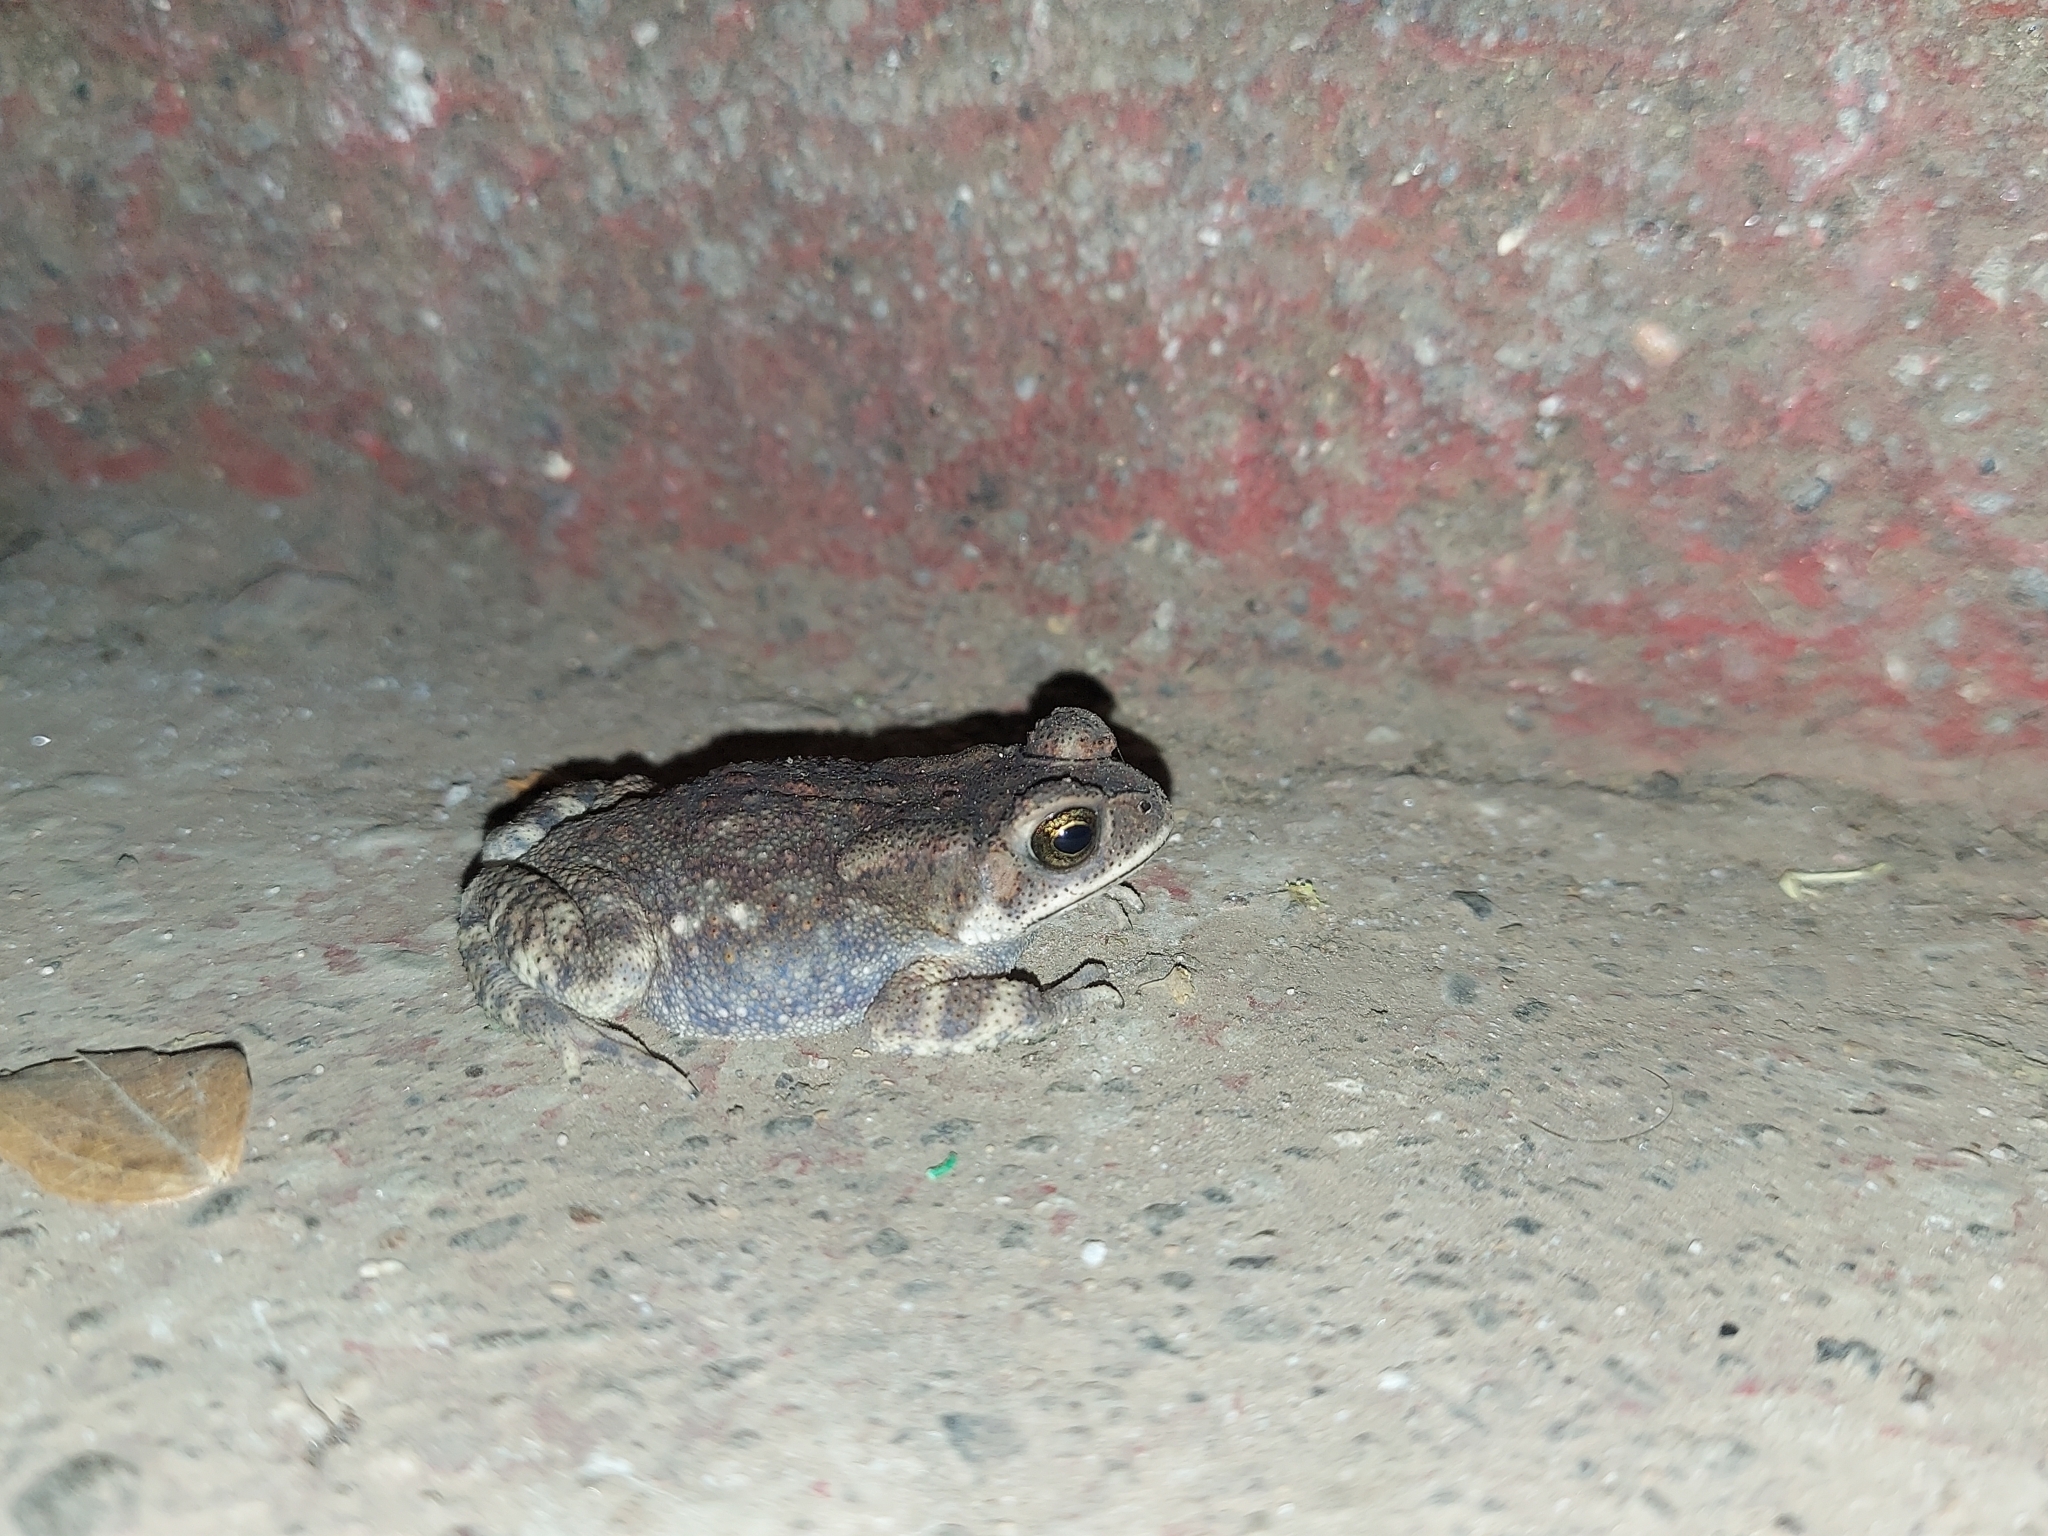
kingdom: Animalia
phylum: Chordata
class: Amphibia
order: Anura
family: Bufonidae
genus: Duttaphrynus
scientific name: Duttaphrynus melanostictus
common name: Common sunda toad
